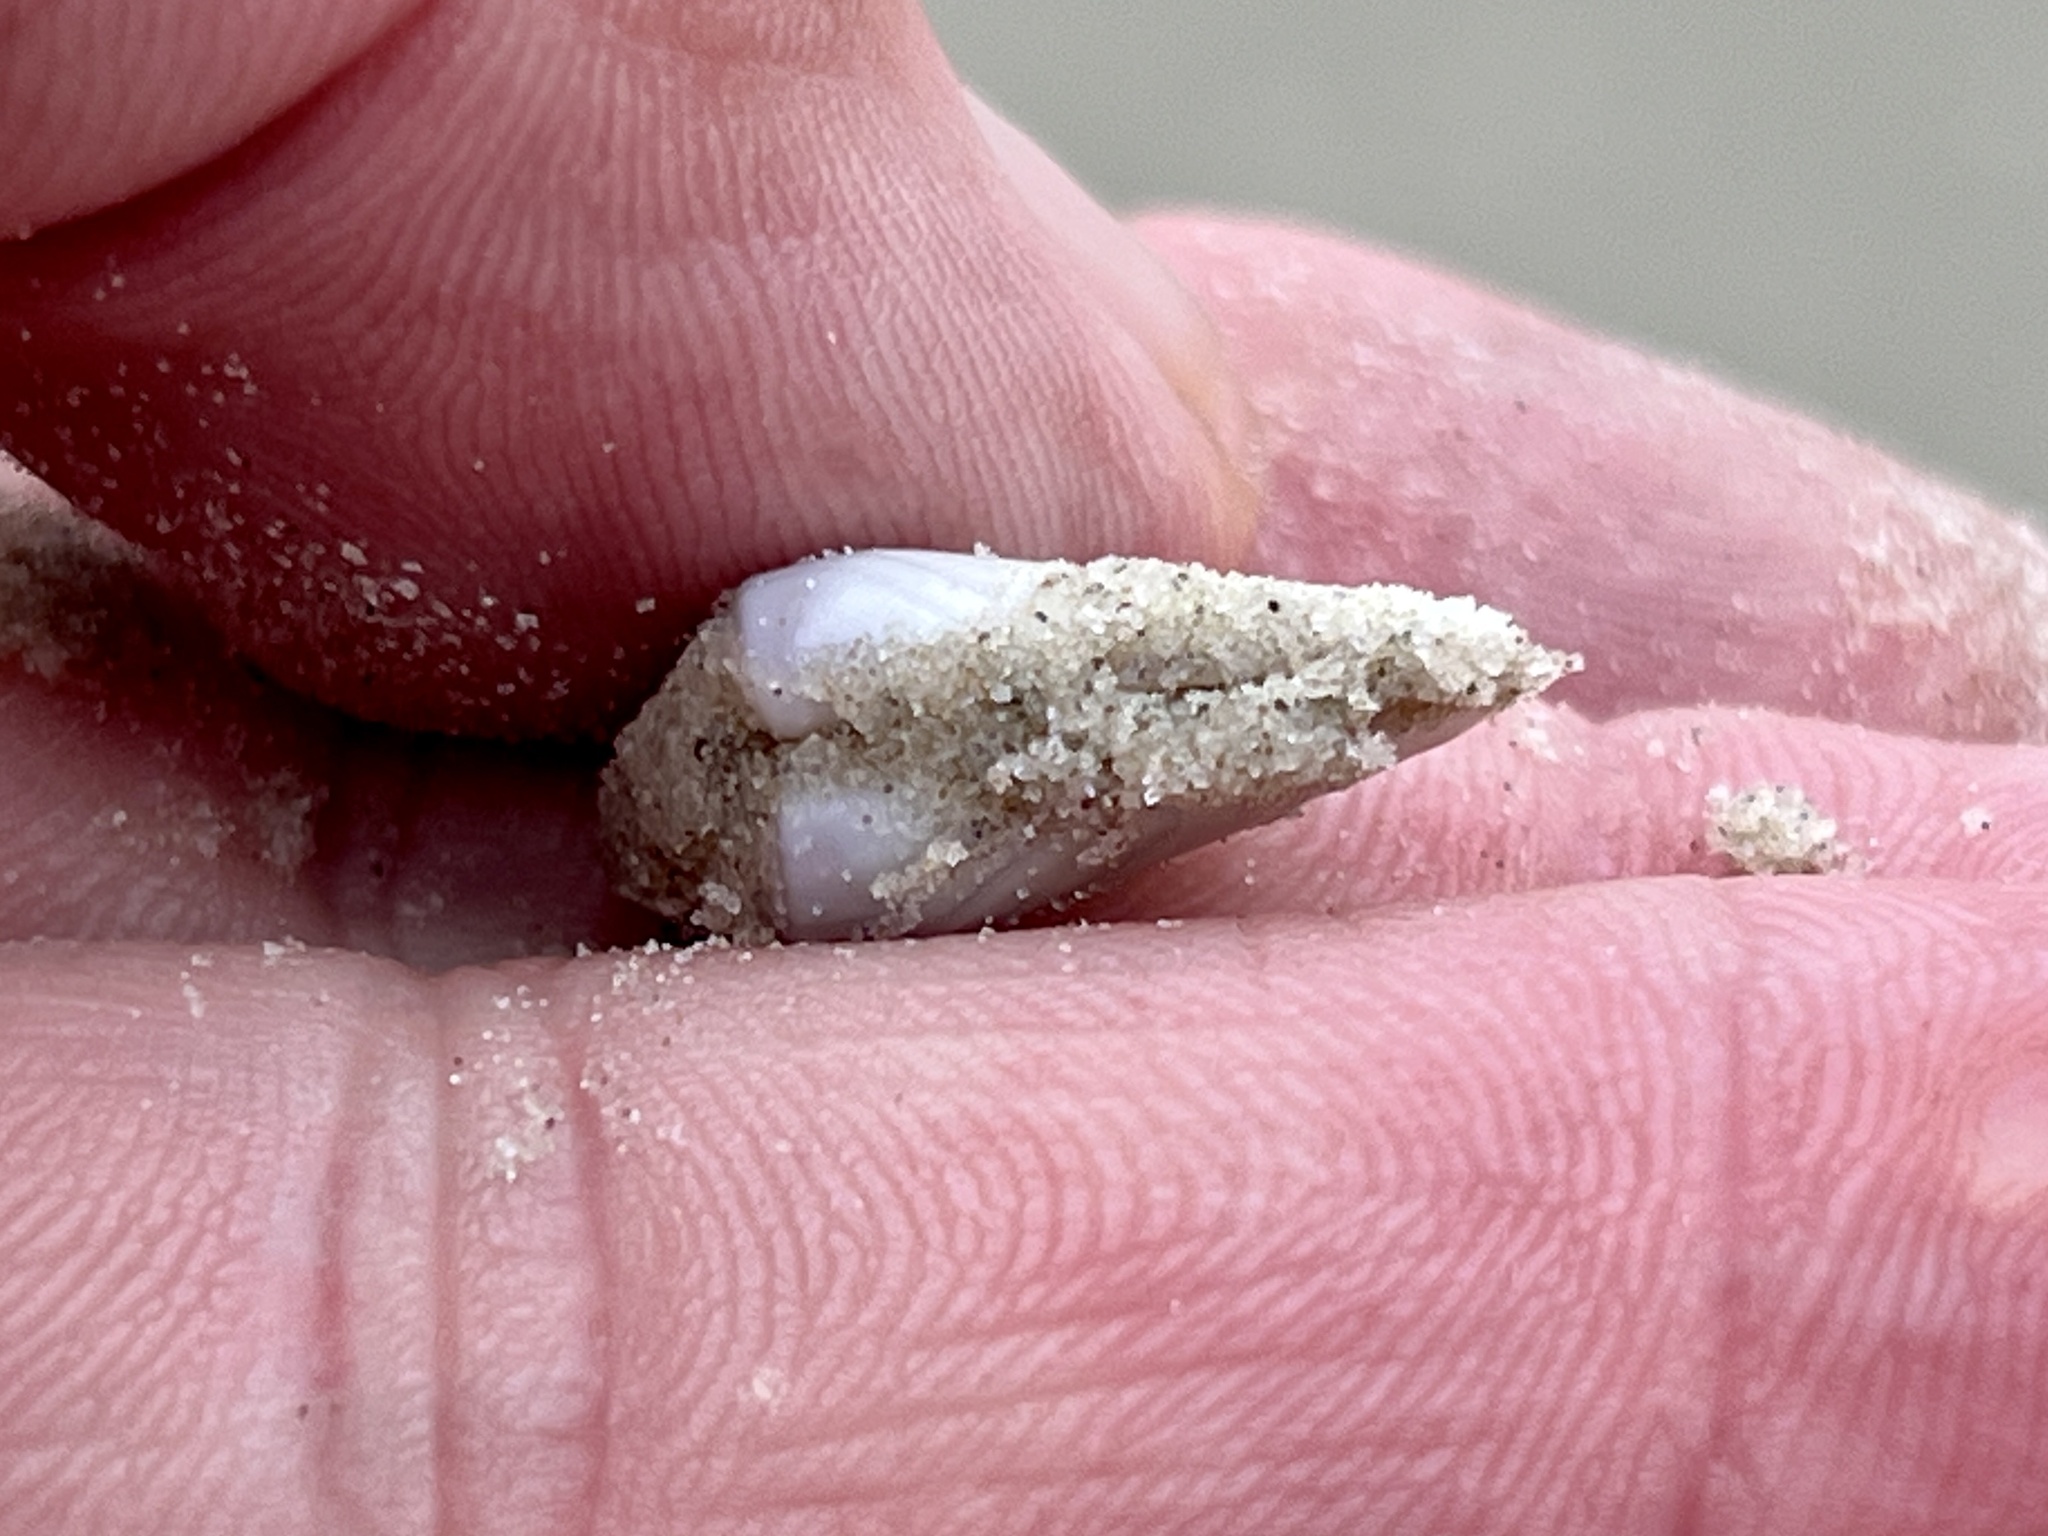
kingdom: Animalia
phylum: Mollusca
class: Bivalvia
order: Cardiida
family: Donacidae
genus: Donax
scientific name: Donax variabilis
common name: Butterfly shell
